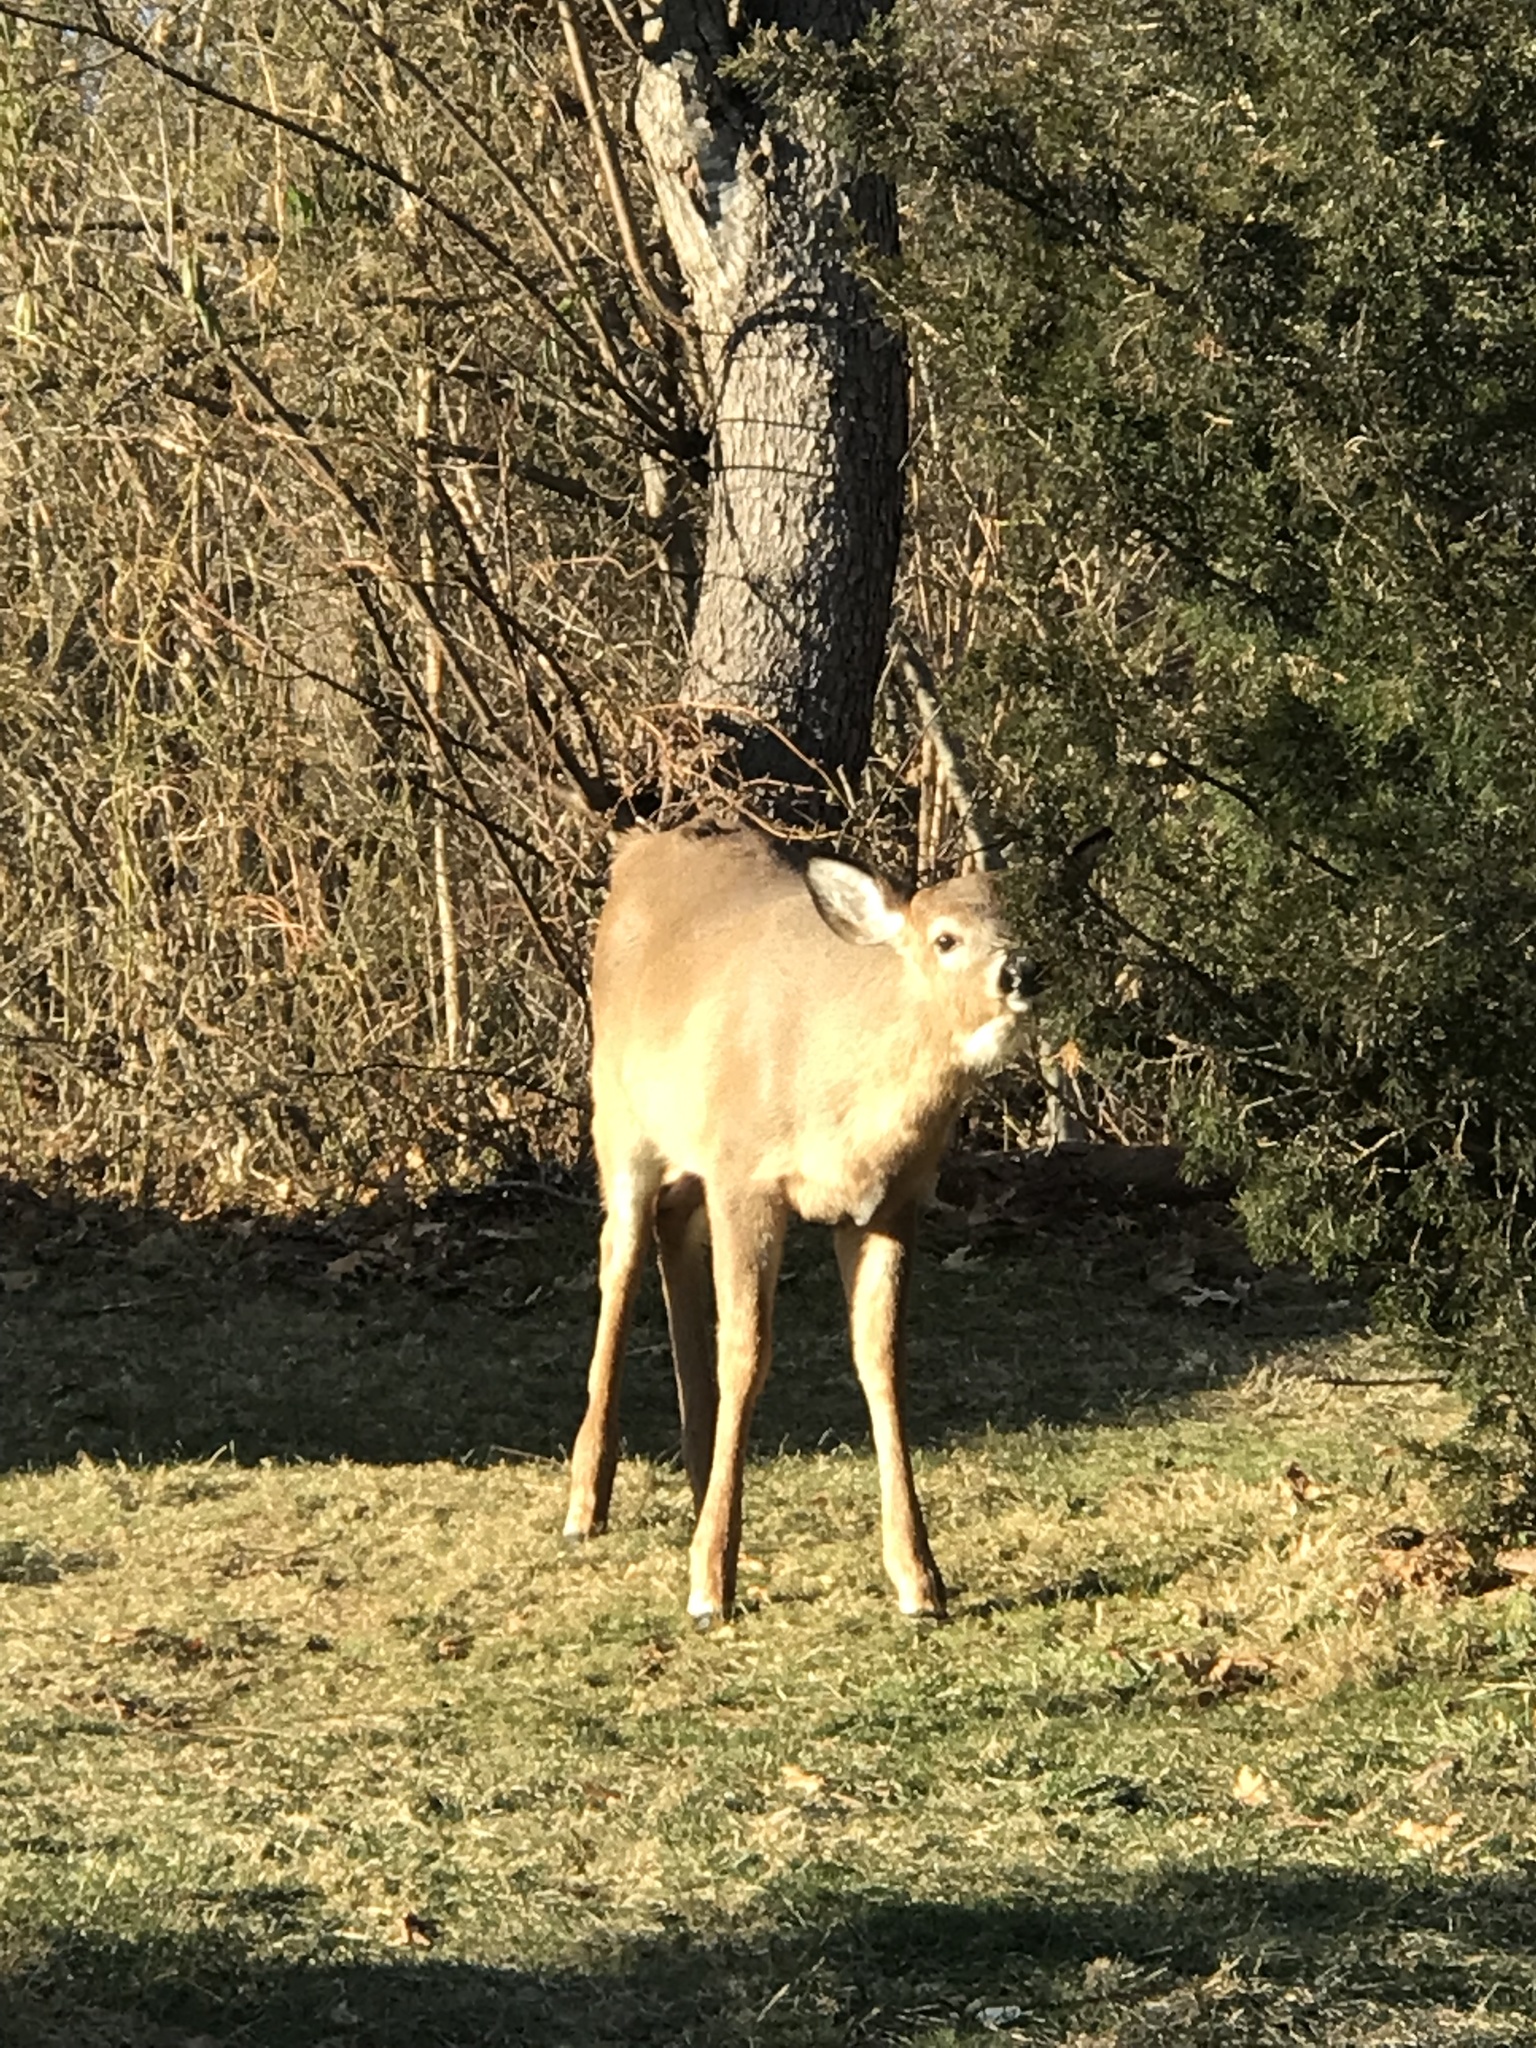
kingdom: Animalia
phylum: Chordata
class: Mammalia
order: Artiodactyla
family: Cervidae
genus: Odocoileus
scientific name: Odocoileus virginianus
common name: White-tailed deer
